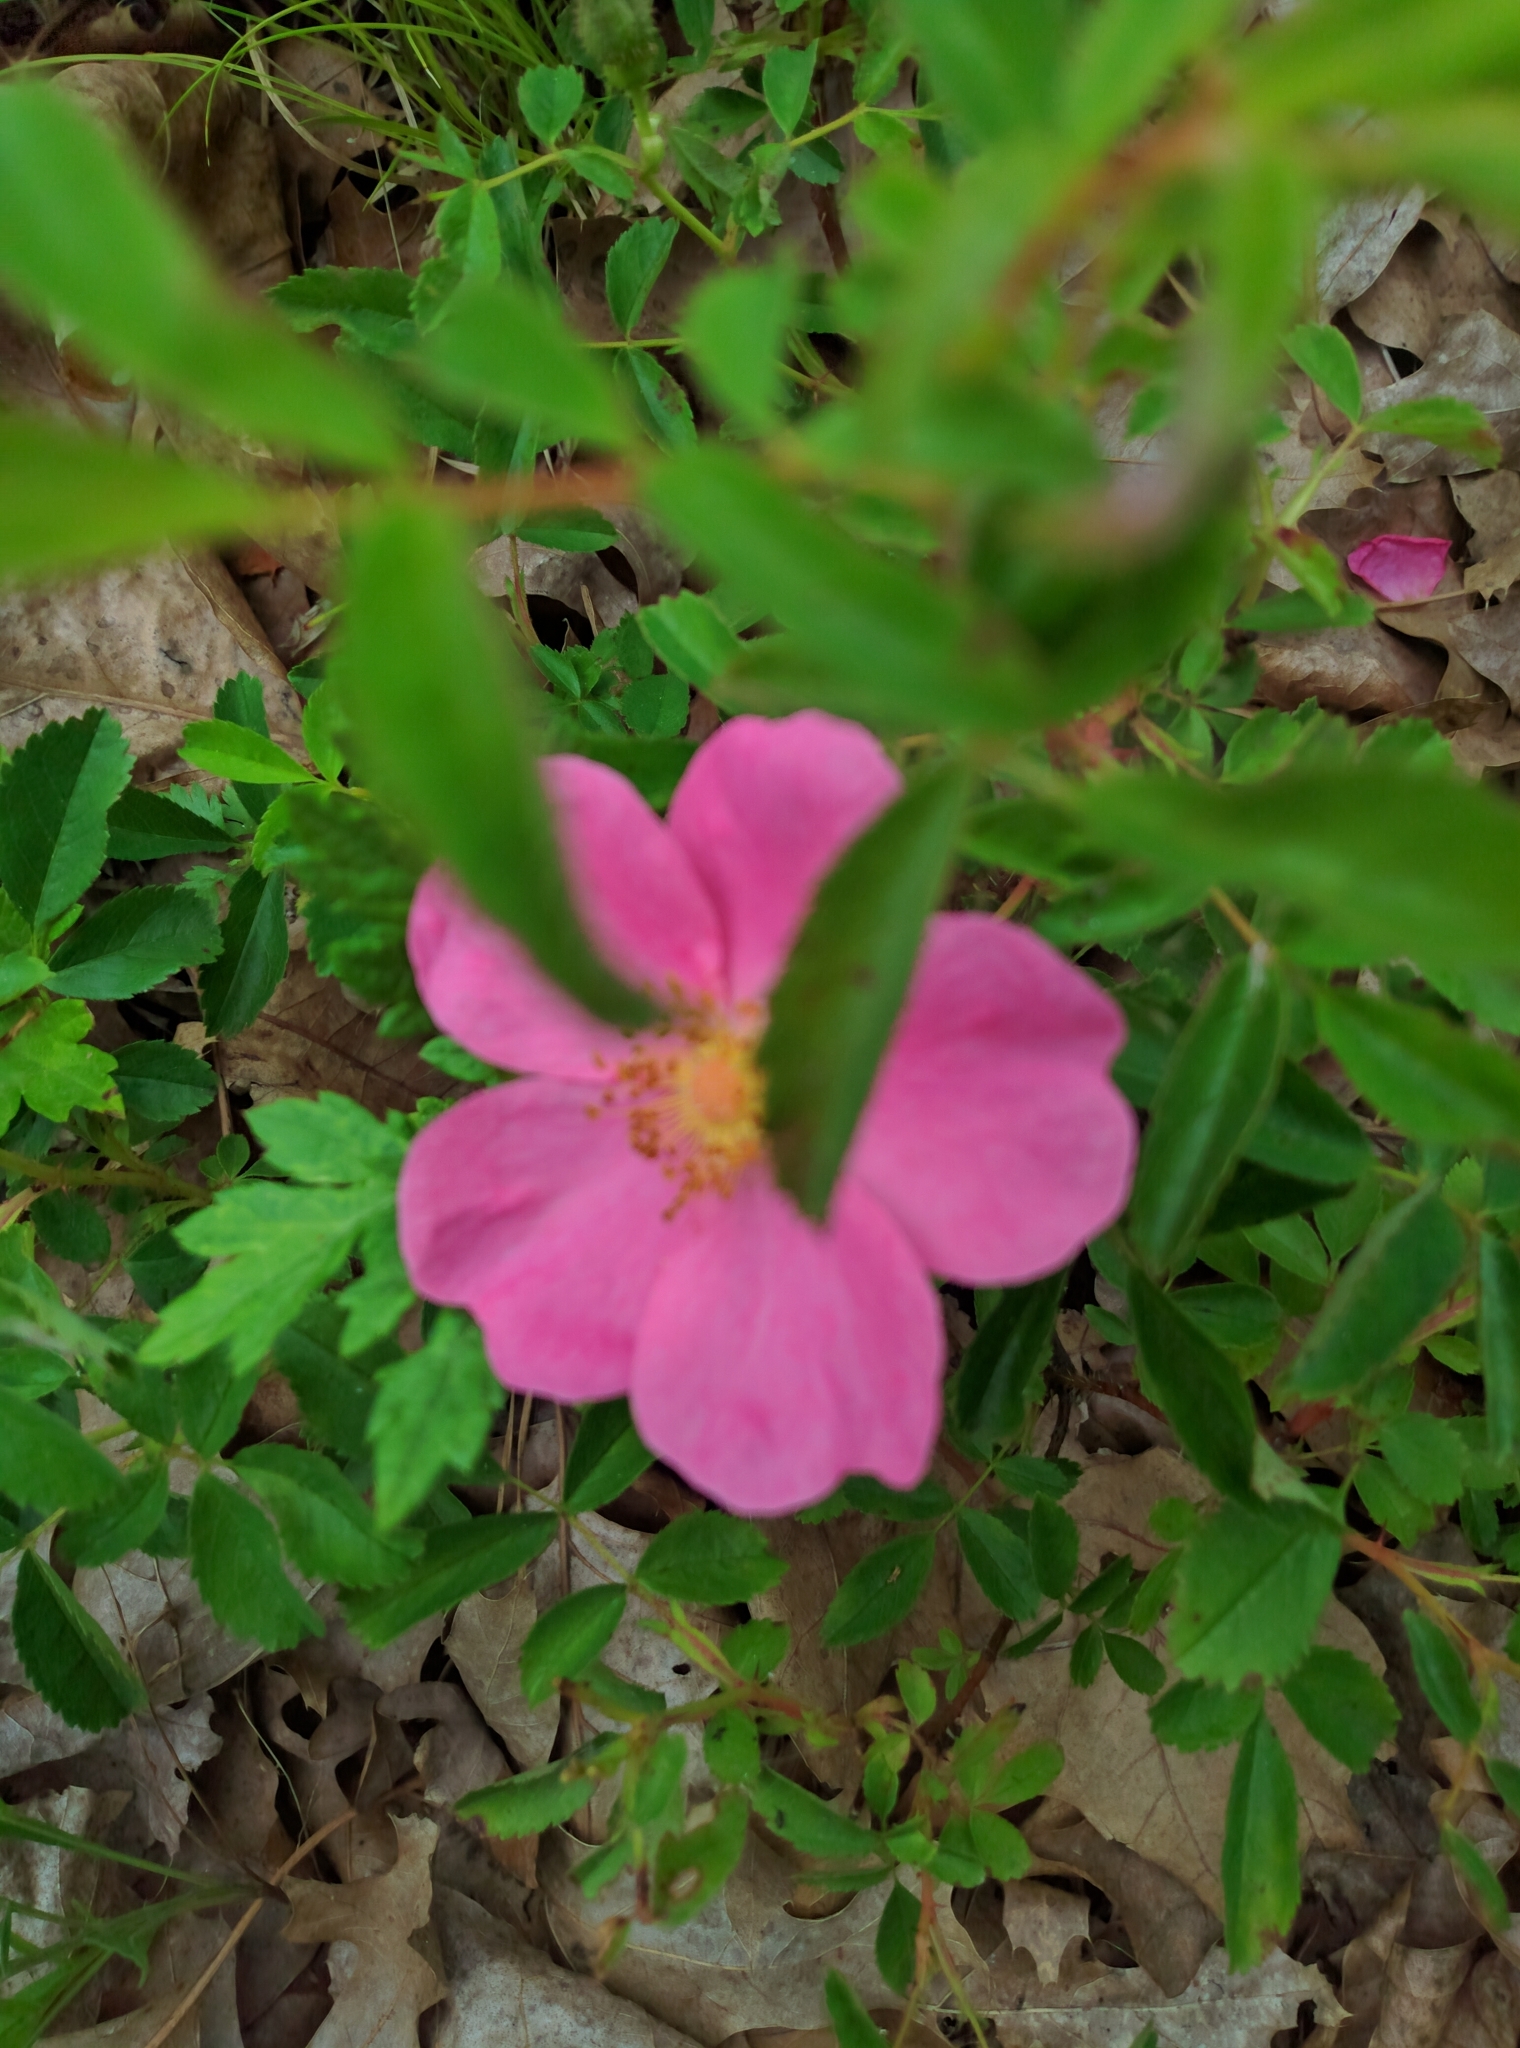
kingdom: Plantae
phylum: Tracheophyta
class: Magnoliopsida
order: Rosales
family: Rosaceae
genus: Rosa
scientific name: Rosa carolina
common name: Pasture rose
